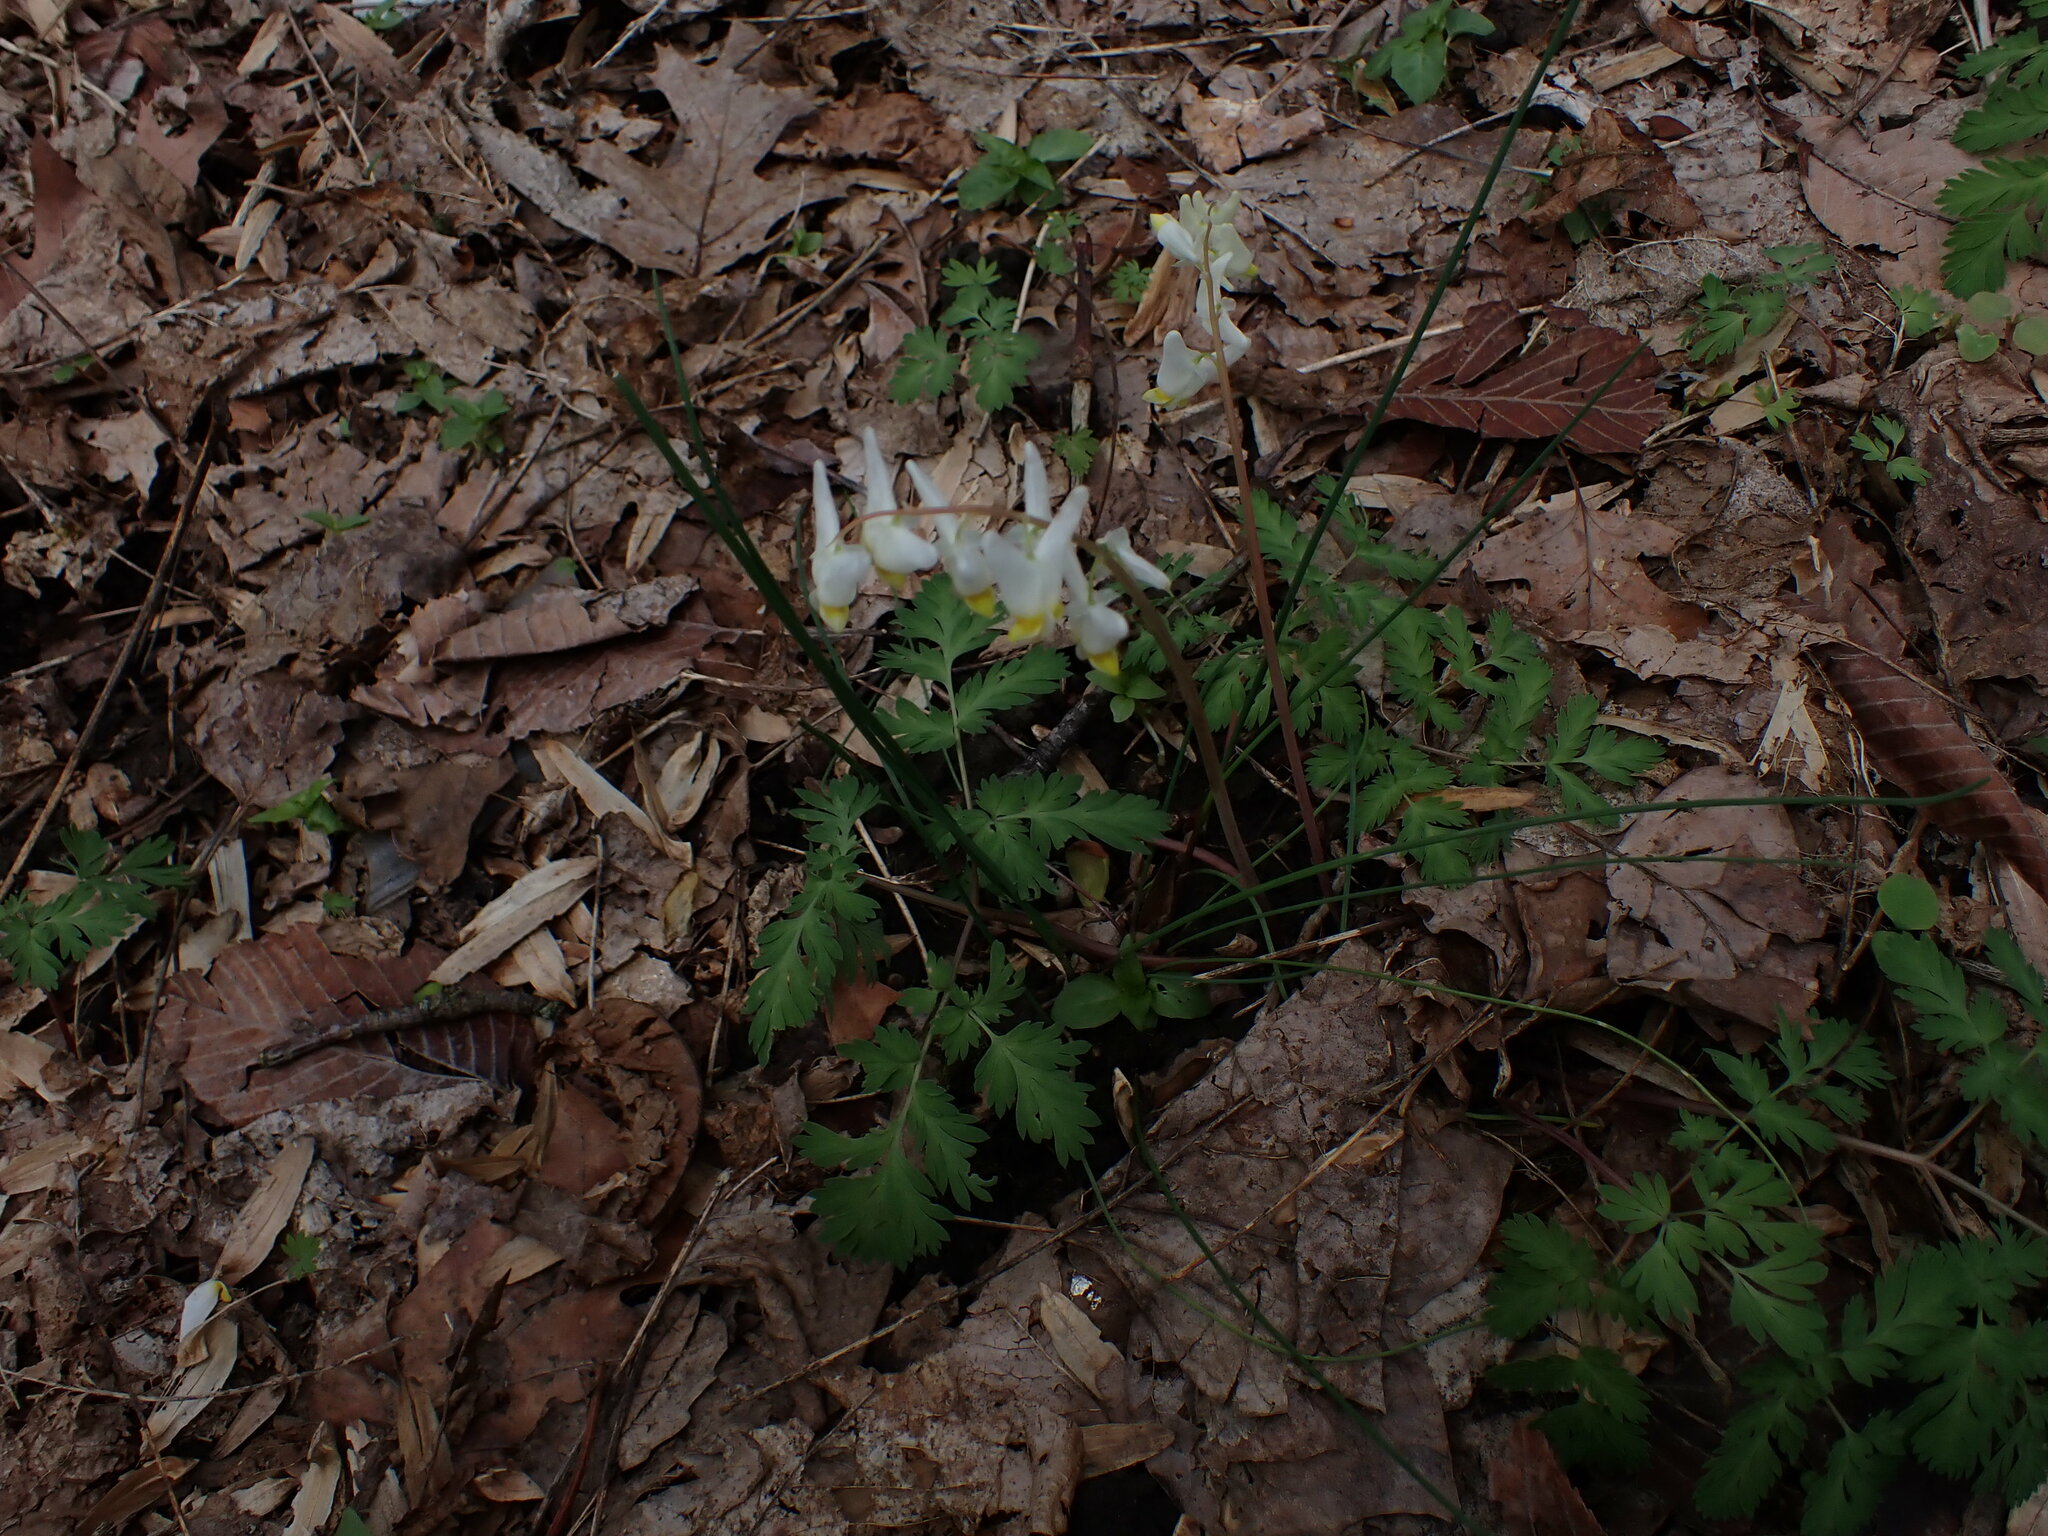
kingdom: Plantae
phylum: Tracheophyta
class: Magnoliopsida
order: Ranunculales
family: Papaveraceae
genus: Dicentra
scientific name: Dicentra cucullaria
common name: Dutchman's breeches
